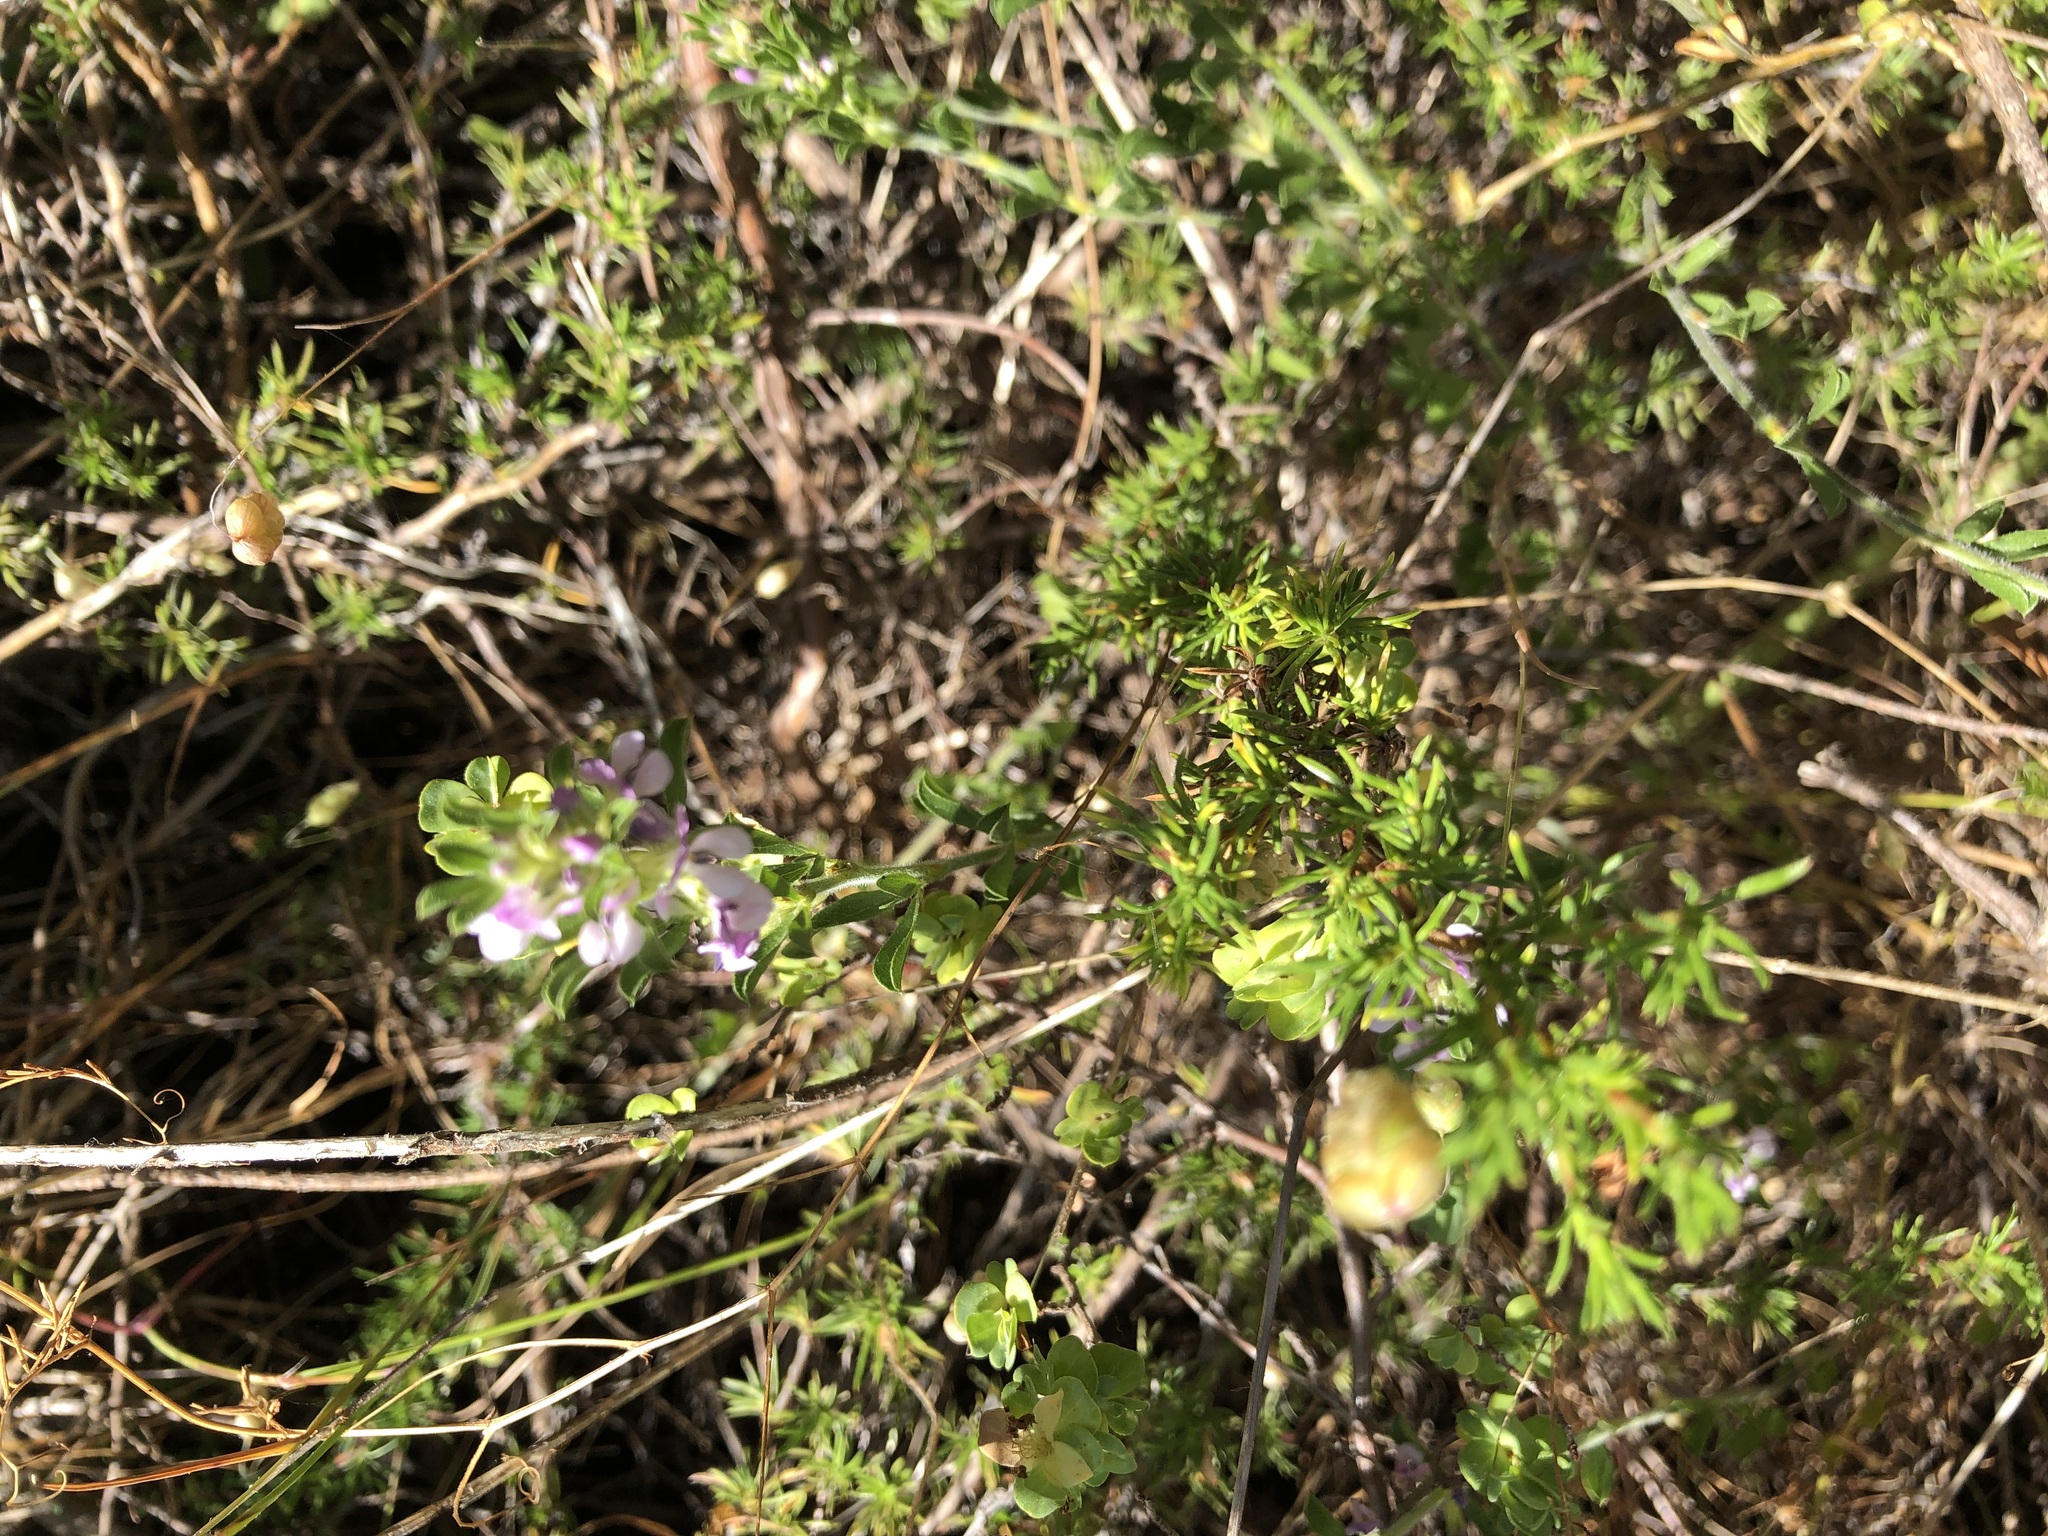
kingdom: Plantae
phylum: Tracheophyta
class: Magnoliopsida
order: Fabales
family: Fabaceae
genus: Psoralea
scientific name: Psoralea
